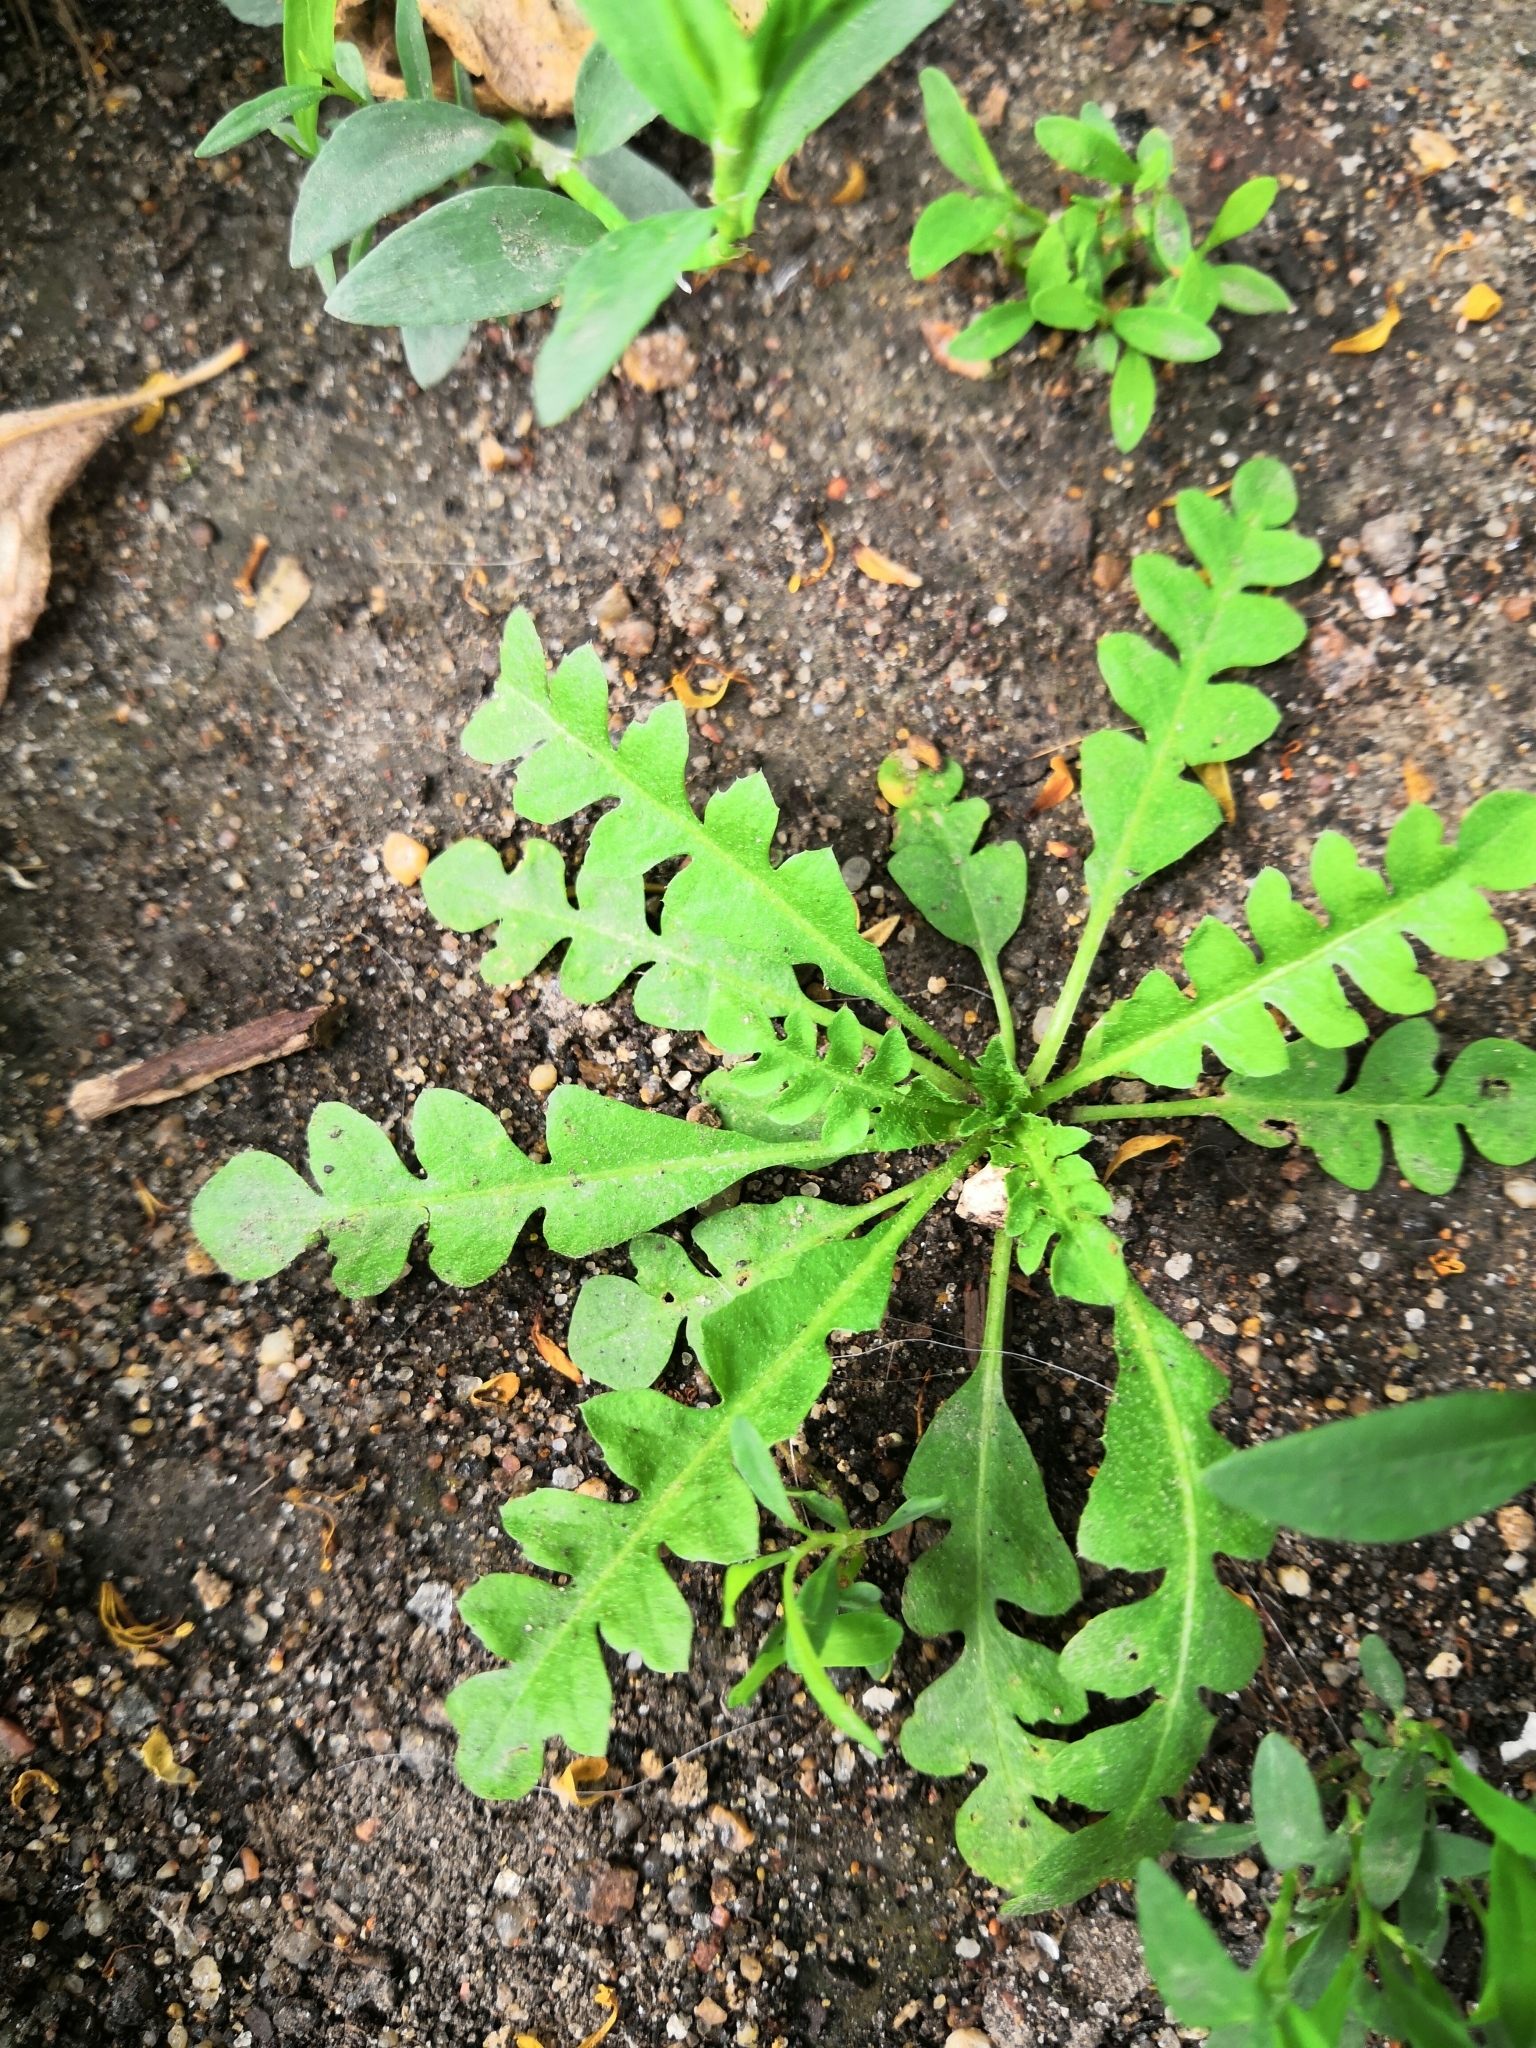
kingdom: Plantae
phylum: Tracheophyta
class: Magnoliopsida
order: Brassicales
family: Brassicaceae
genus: Capsella
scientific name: Capsella bursa-pastoris
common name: Shepherd's purse
